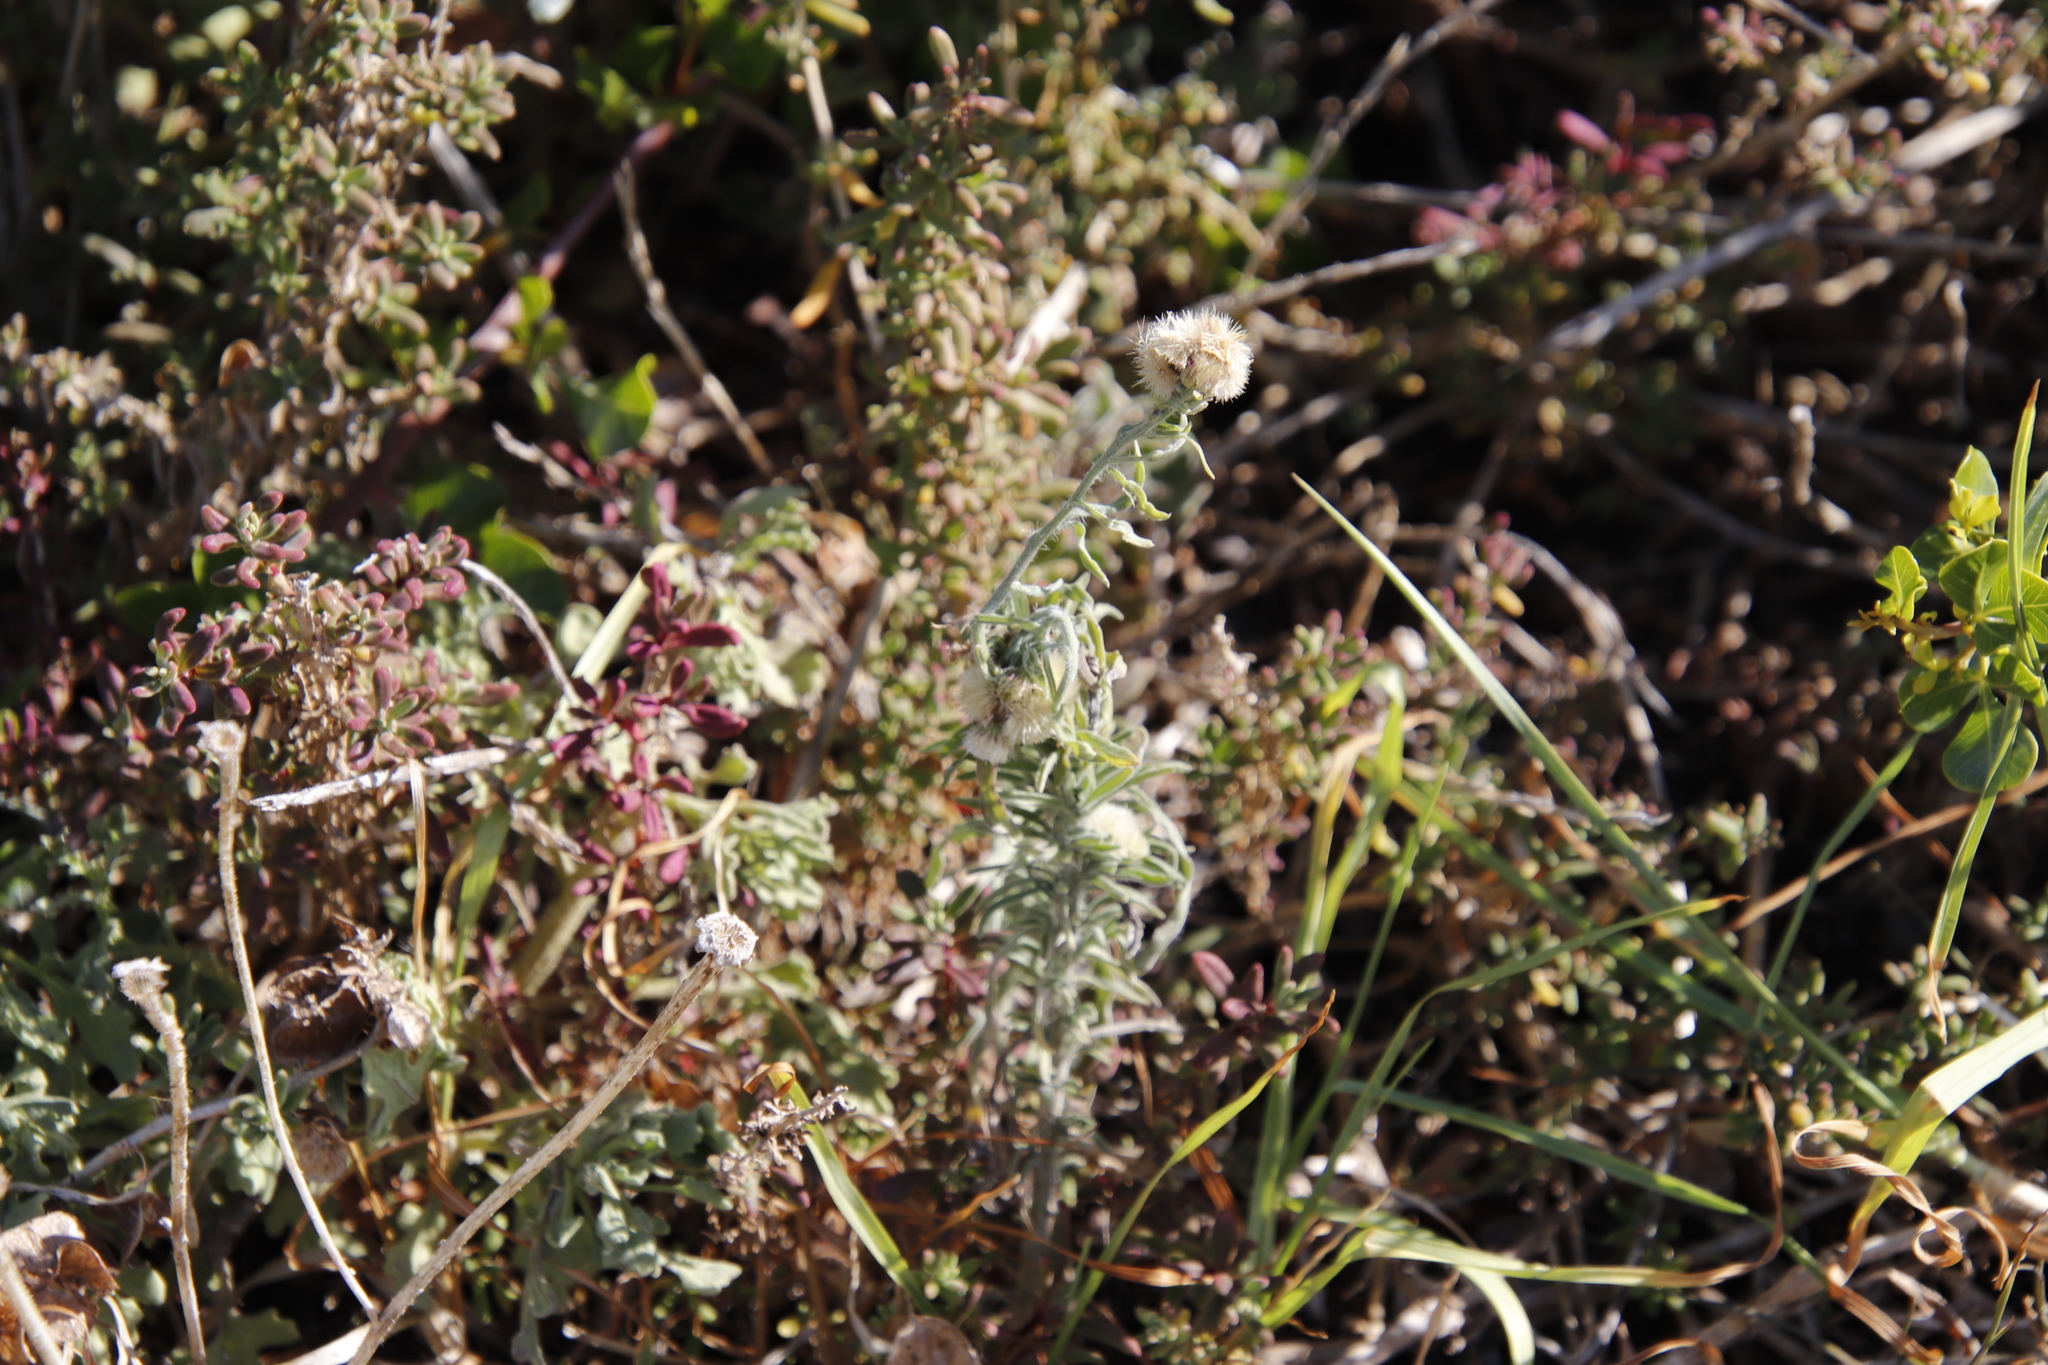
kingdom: Plantae
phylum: Tracheophyta
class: Magnoliopsida
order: Asterales
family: Asteraceae
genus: Erigeron
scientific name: Erigeron bonariensis
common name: Argentine fleabane
